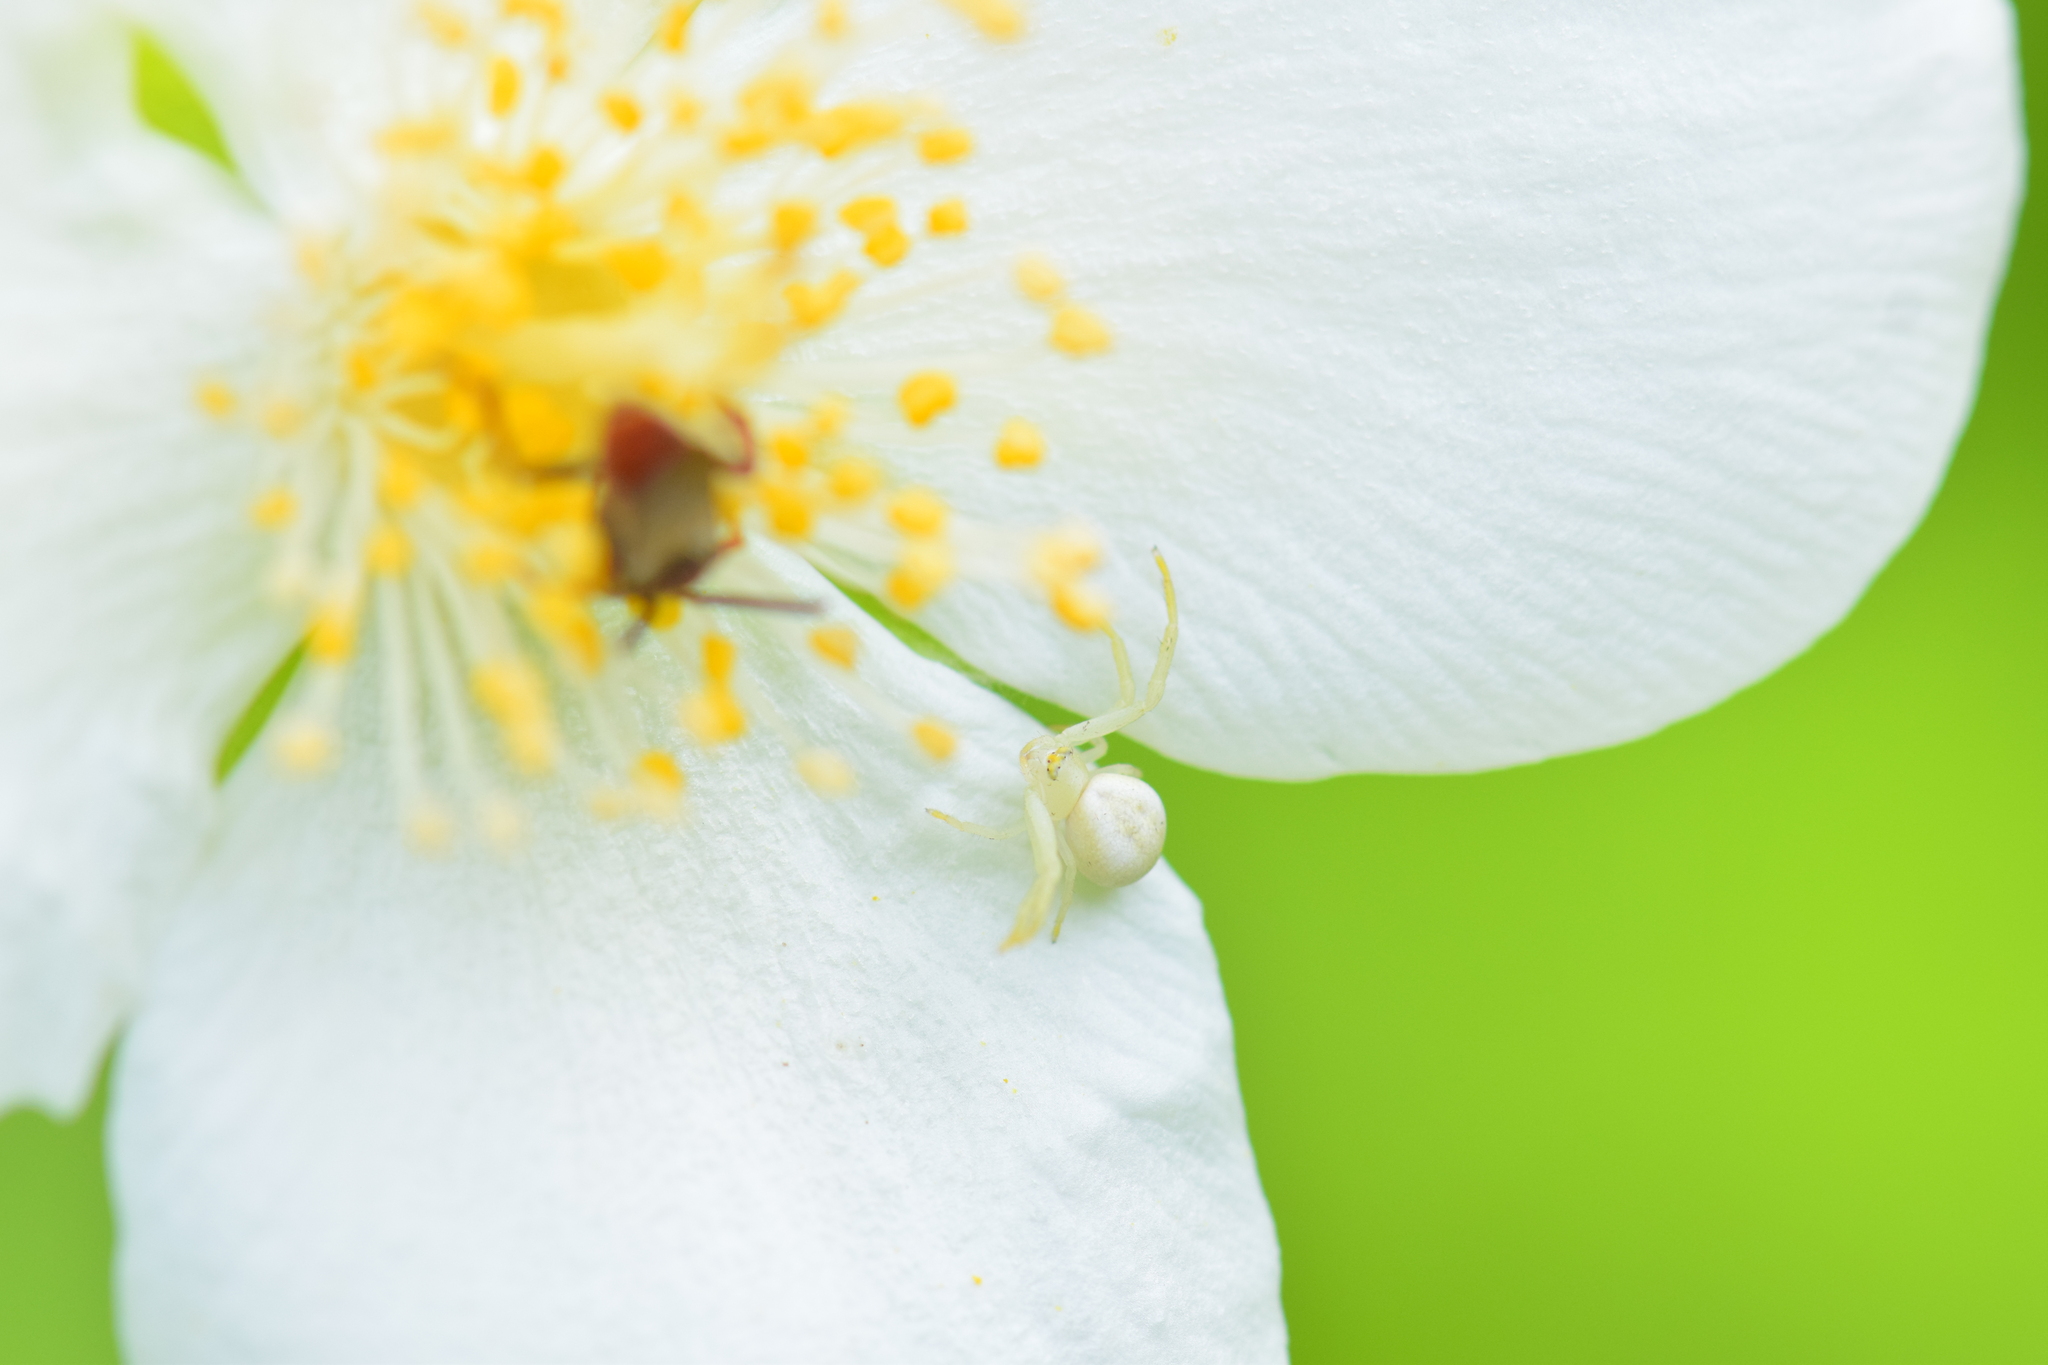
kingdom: Animalia
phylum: Arthropoda
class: Arachnida
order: Araneae
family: Thomisidae
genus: Misumena
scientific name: Misumena vatia
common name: Goldenrod crab spider
